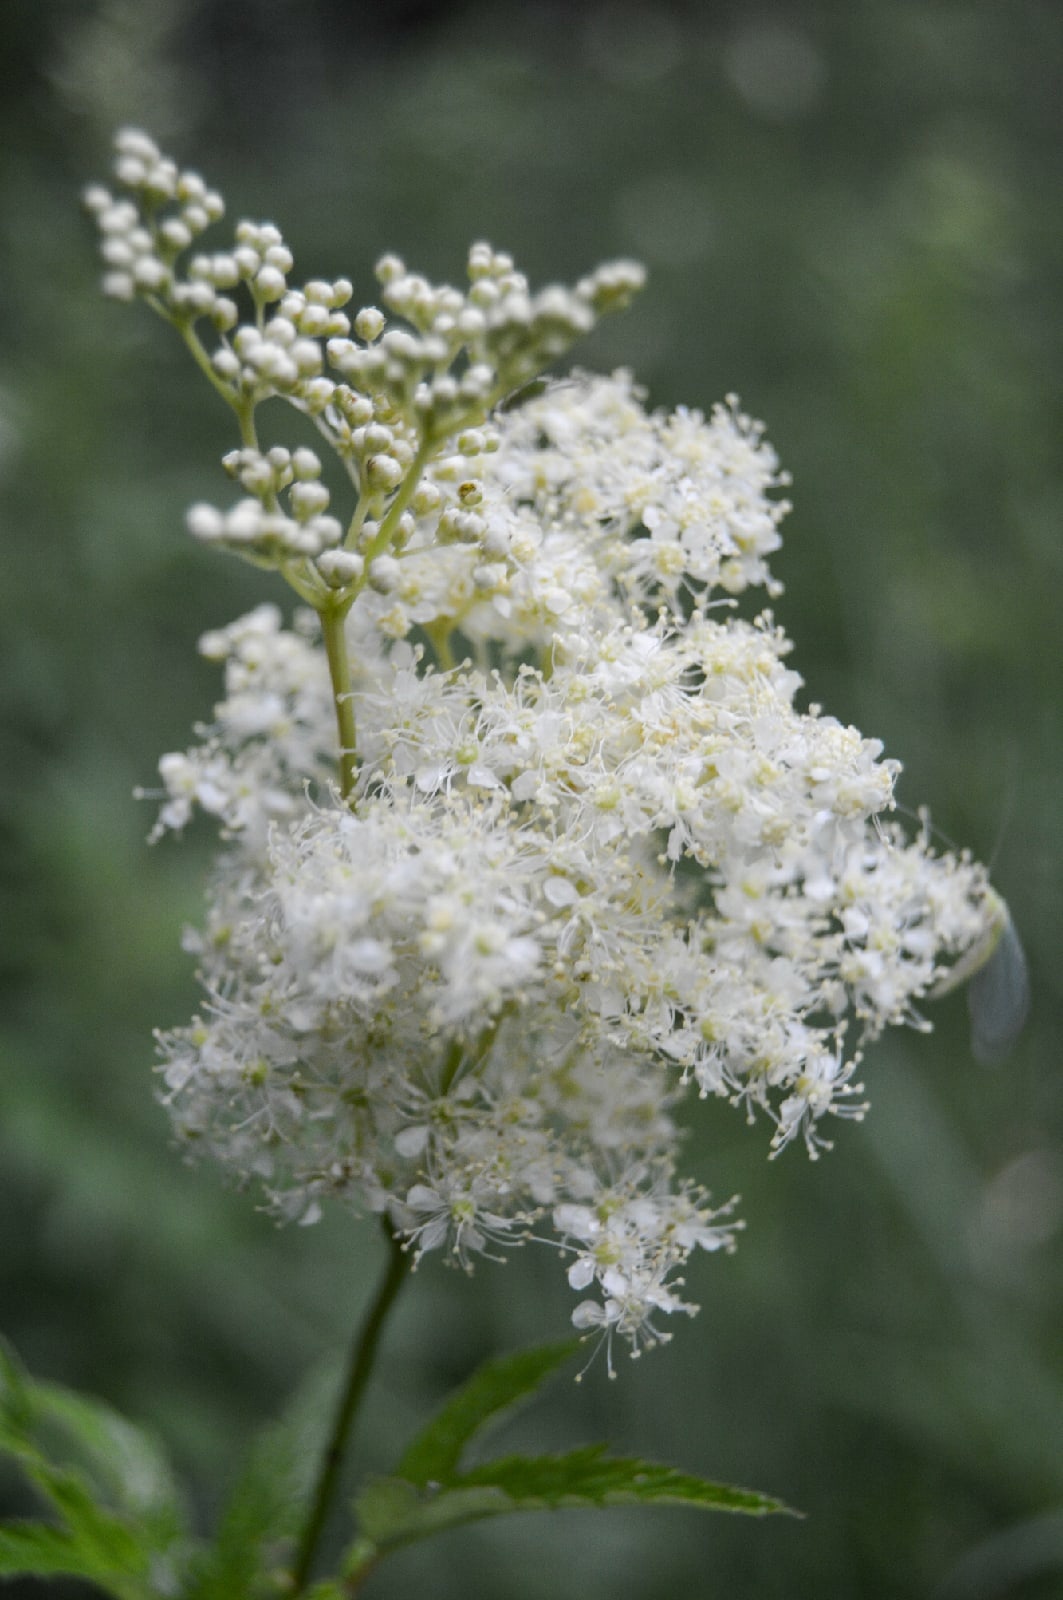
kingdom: Plantae
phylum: Tracheophyta
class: Magnoliopsida
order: Rosales
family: Rosaceae
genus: Filipendula
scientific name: Filipendula ulmaria
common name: Meadowsweet
